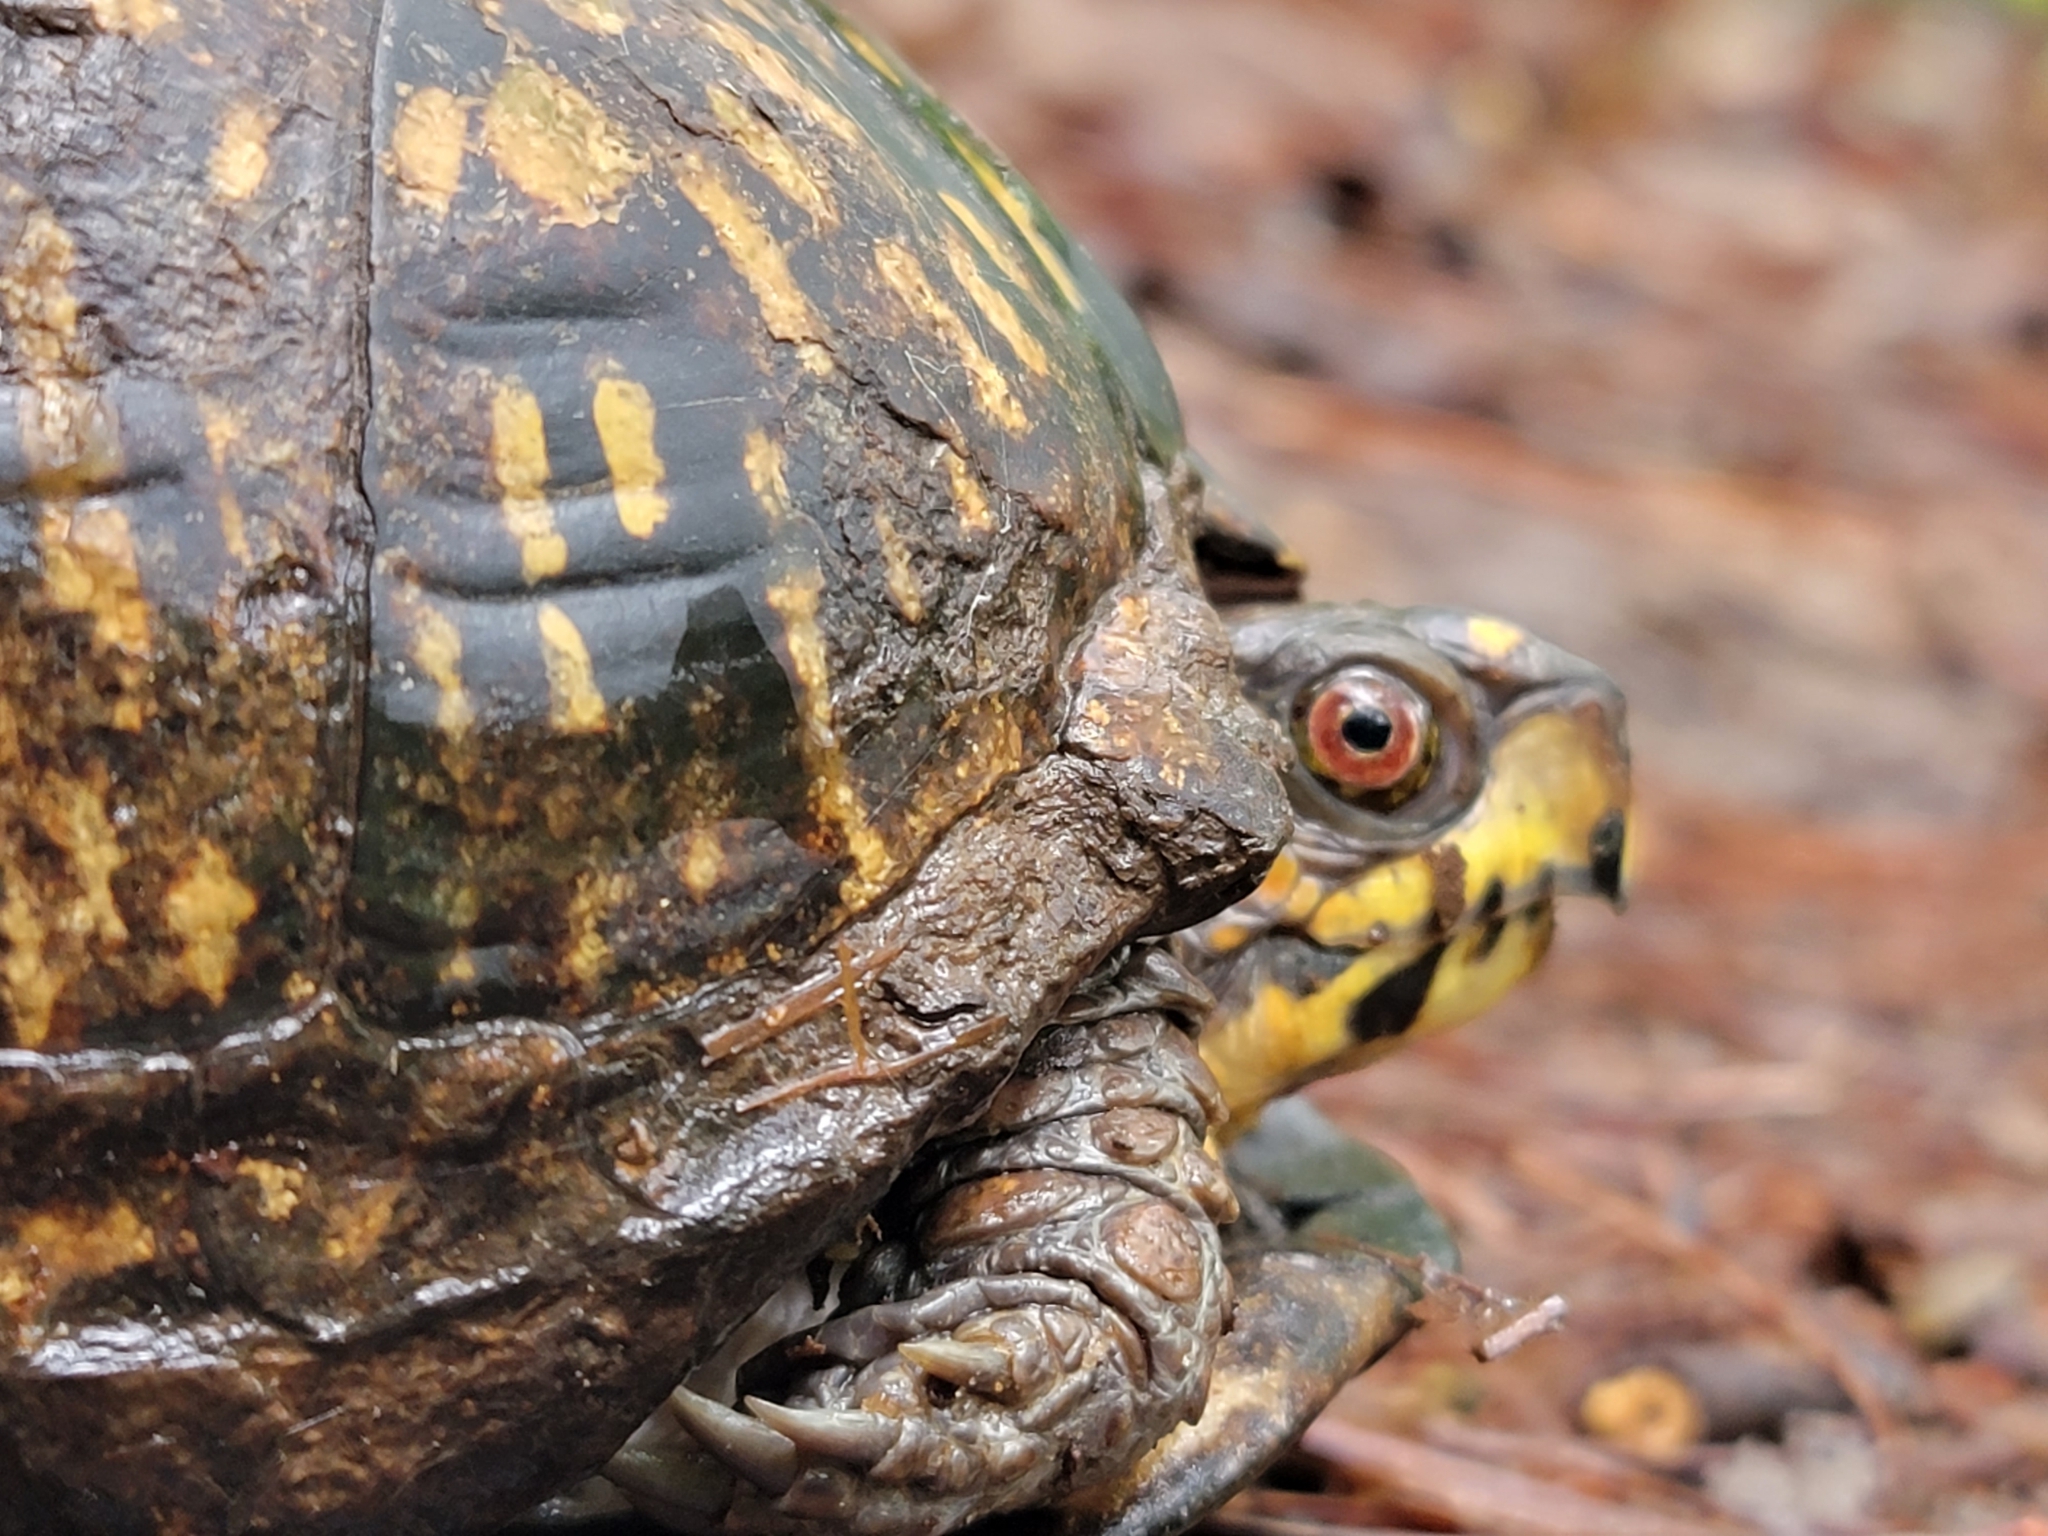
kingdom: Animalia
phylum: Chordata
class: Testudines
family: Emydidae
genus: Terrapene
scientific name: Terrapene carolina
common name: Common box turtle
